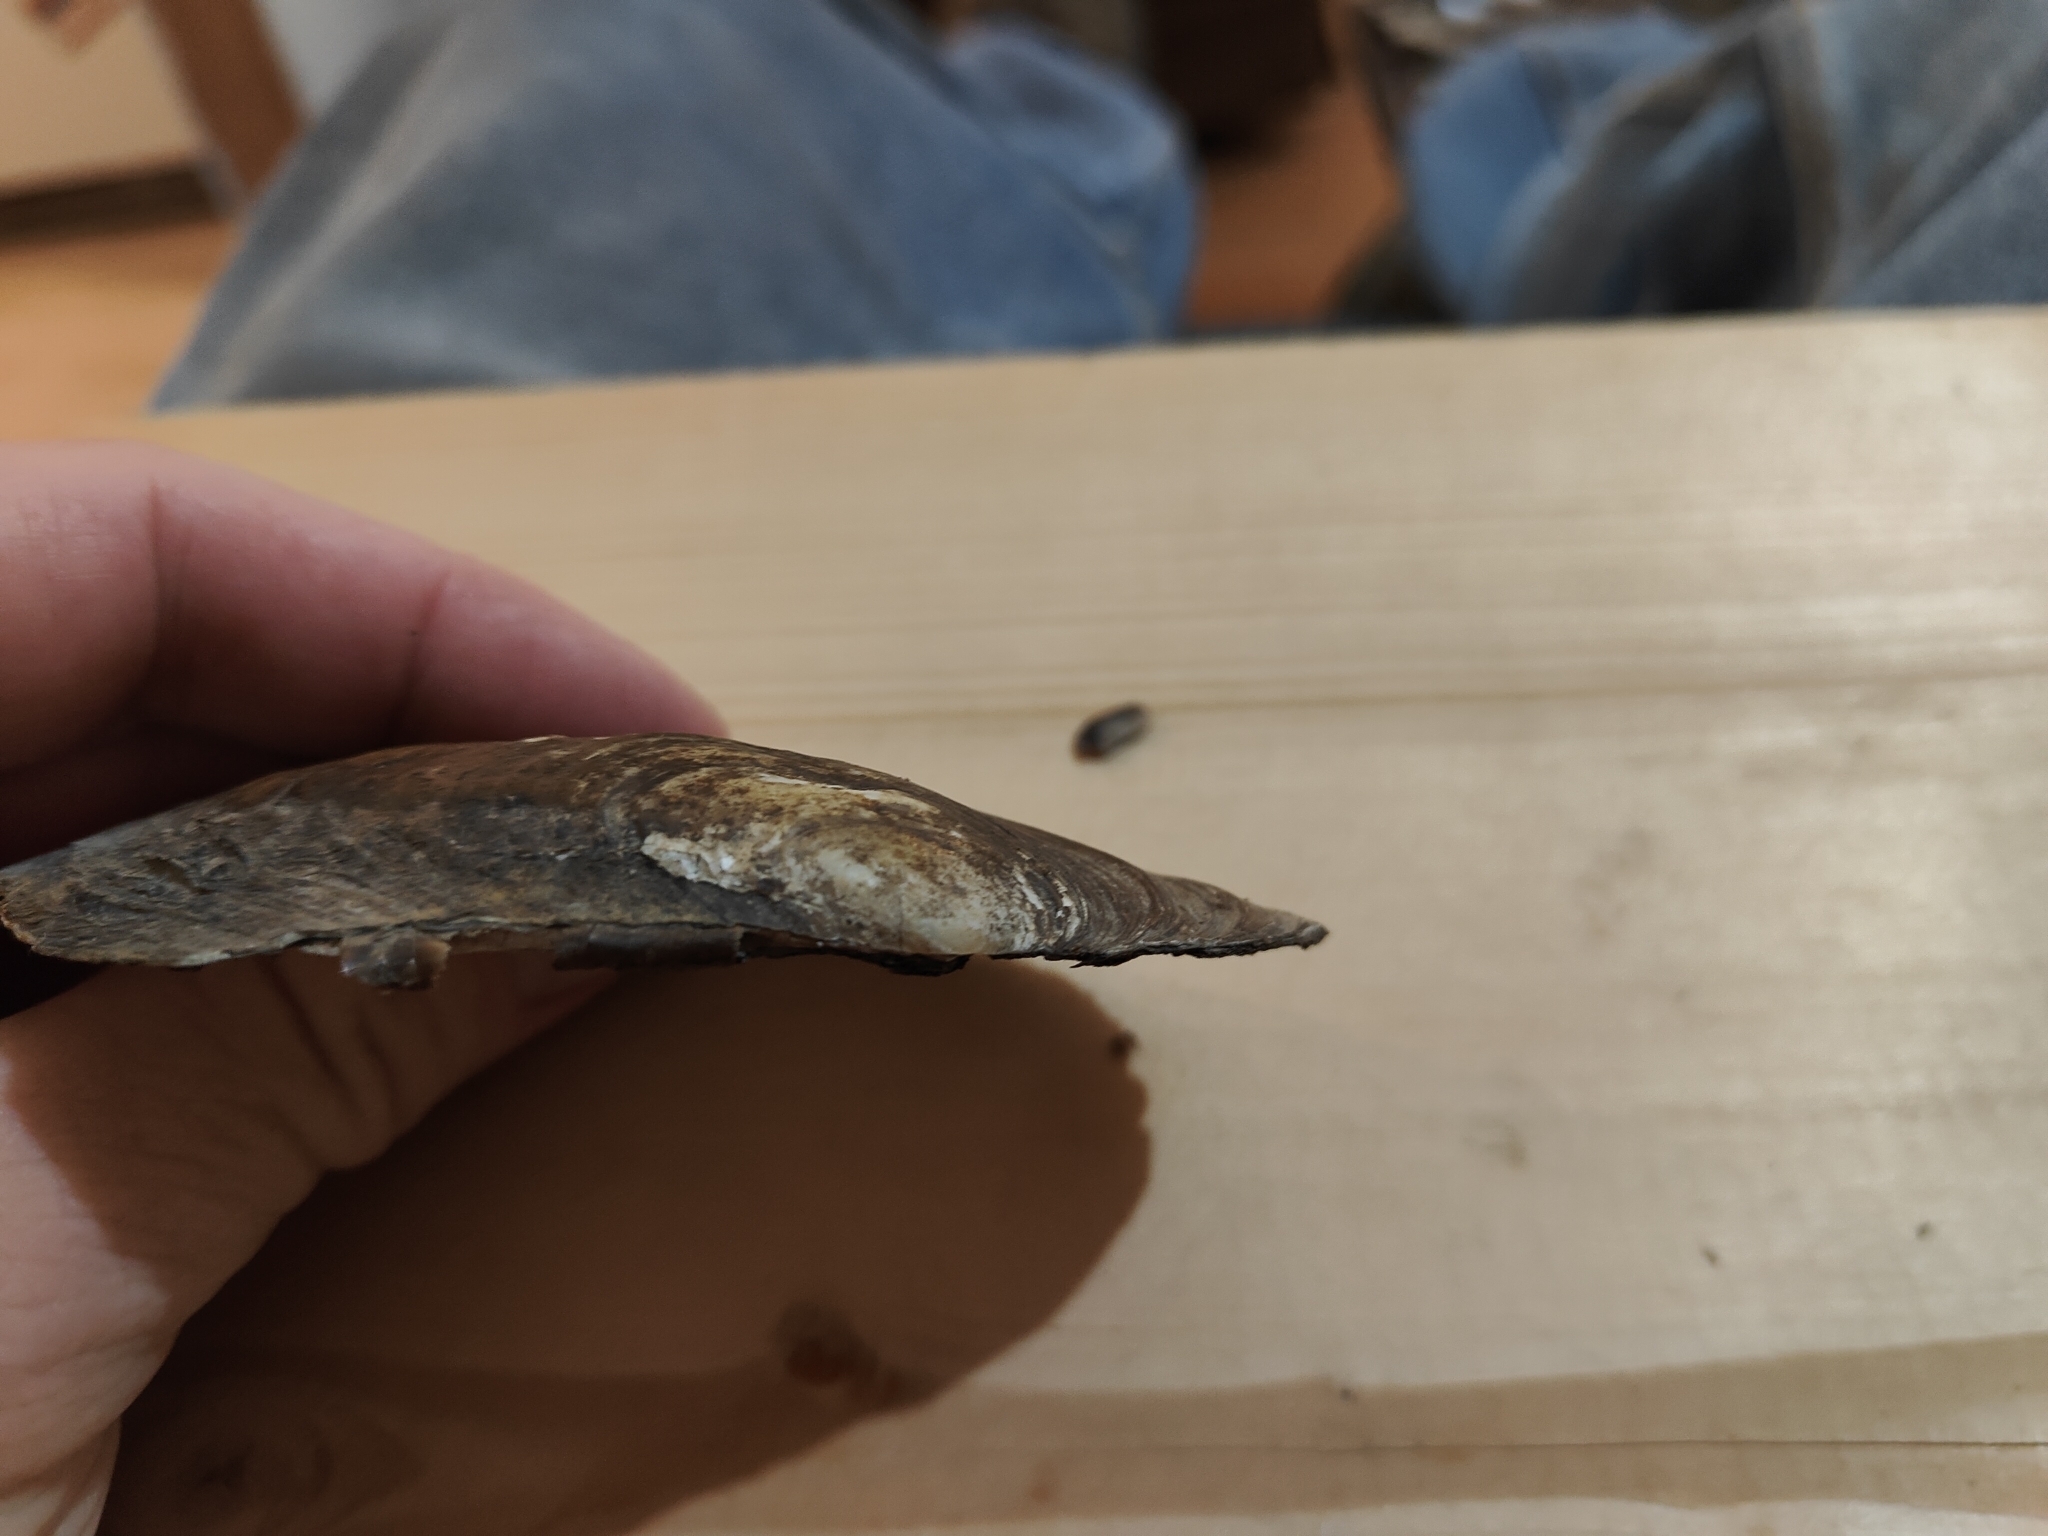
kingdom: Animalia
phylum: Mollusca
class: Bivalvia
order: Unionida
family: Unionidae
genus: Potamilus
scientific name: Potamilus fragilis
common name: Fragile papershell
